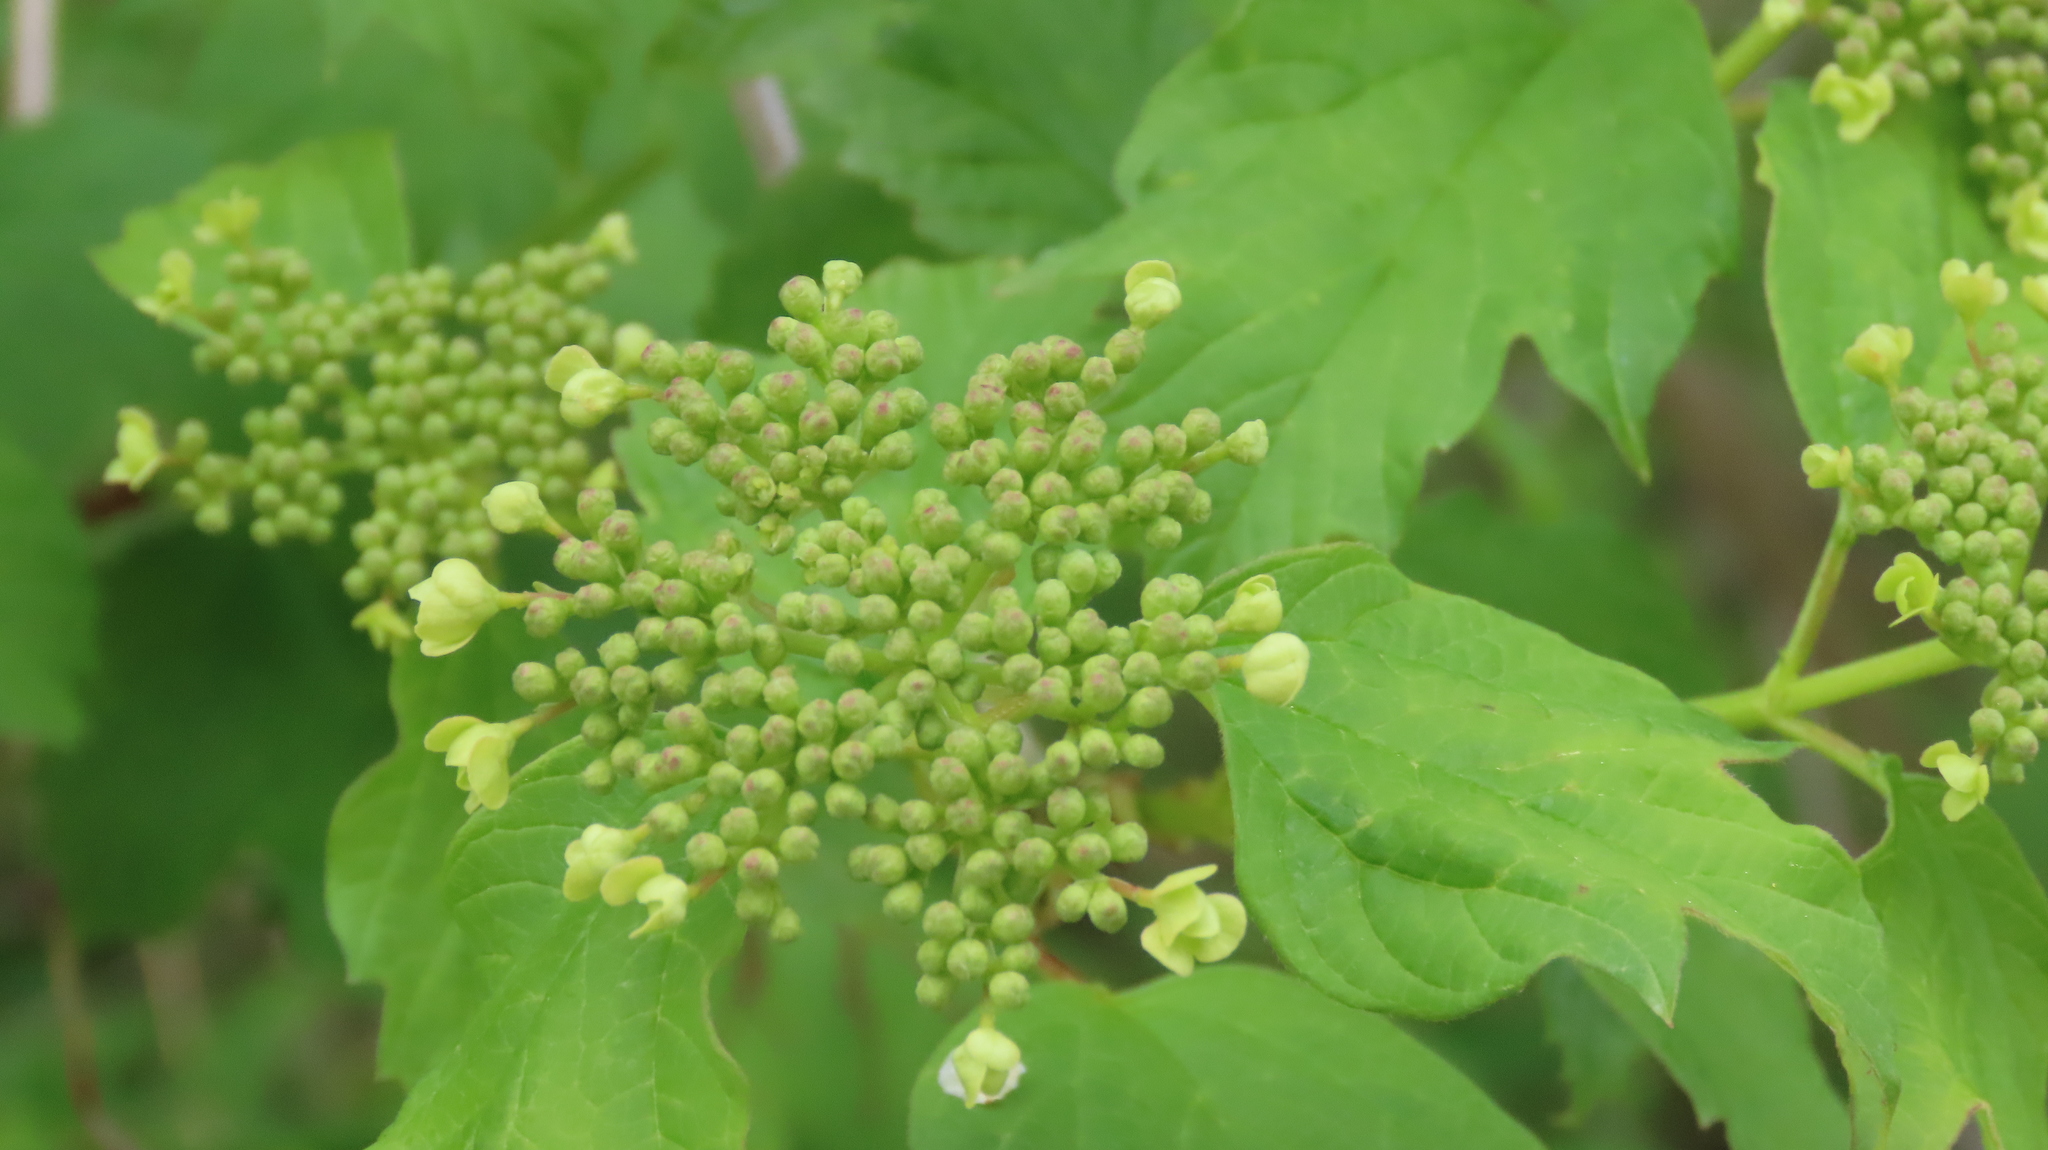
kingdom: Plantae
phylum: Tracheophyta
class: Magnoliopsida
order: Dipsacales
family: Viburnaceae
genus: Viburnum
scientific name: Viburnum opulus
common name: Guelder-rose
